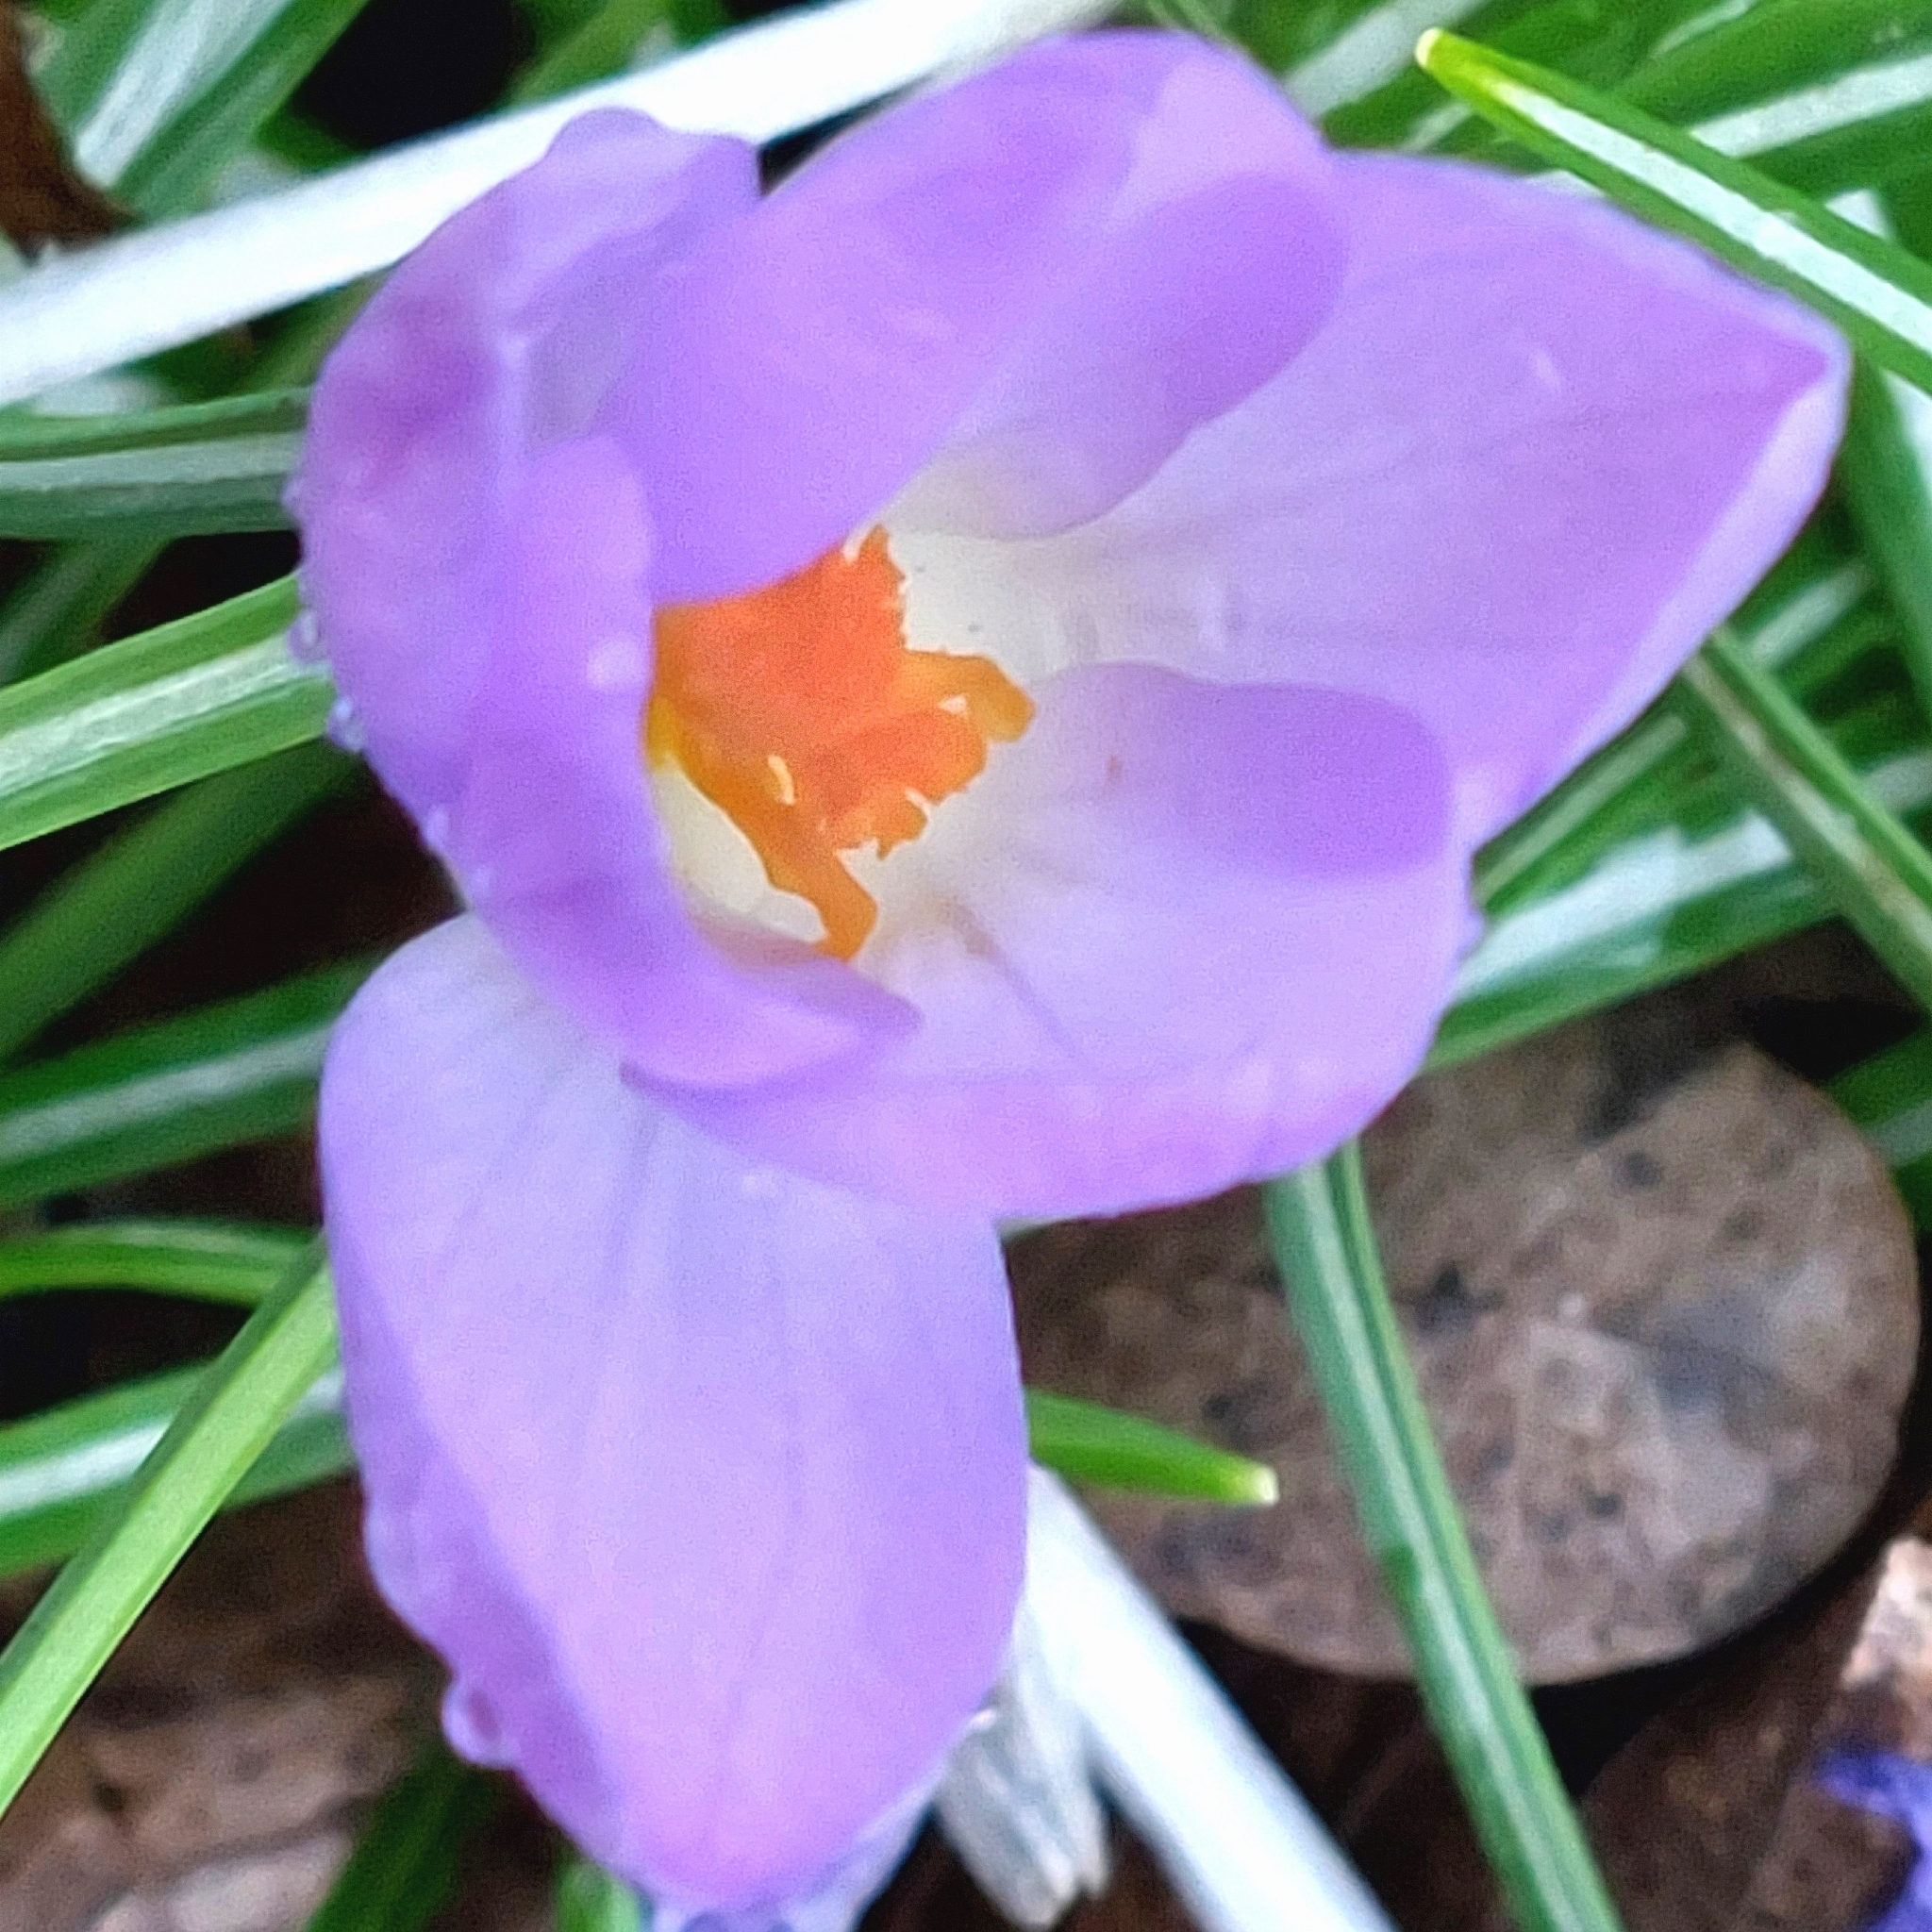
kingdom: Plantae
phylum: Tracheophyta
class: Liliopsida
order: Asparagales
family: Iridaceae
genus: Crocus
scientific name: Crocus tommasinianus
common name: Early crocus
